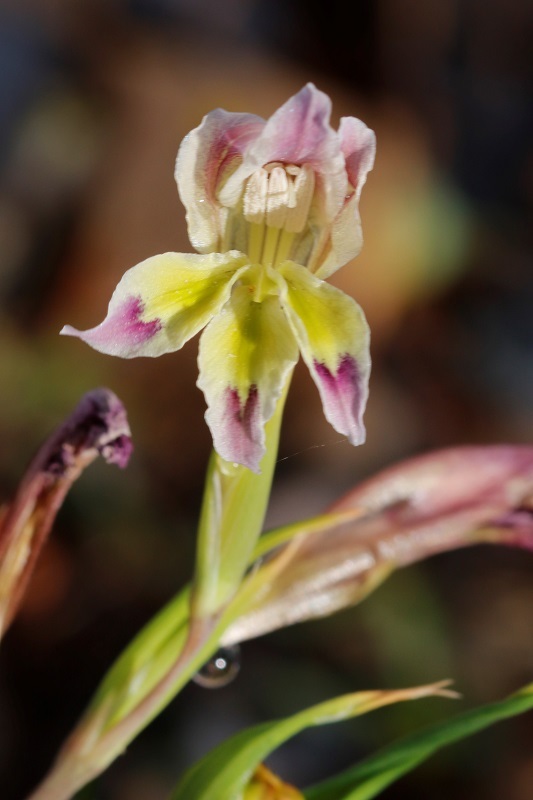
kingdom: Plantae
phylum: Tracheophyta
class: Liliopsida
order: Asparagales
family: Iridaceae
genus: Gladiolus
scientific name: Gladiolus scullyi
